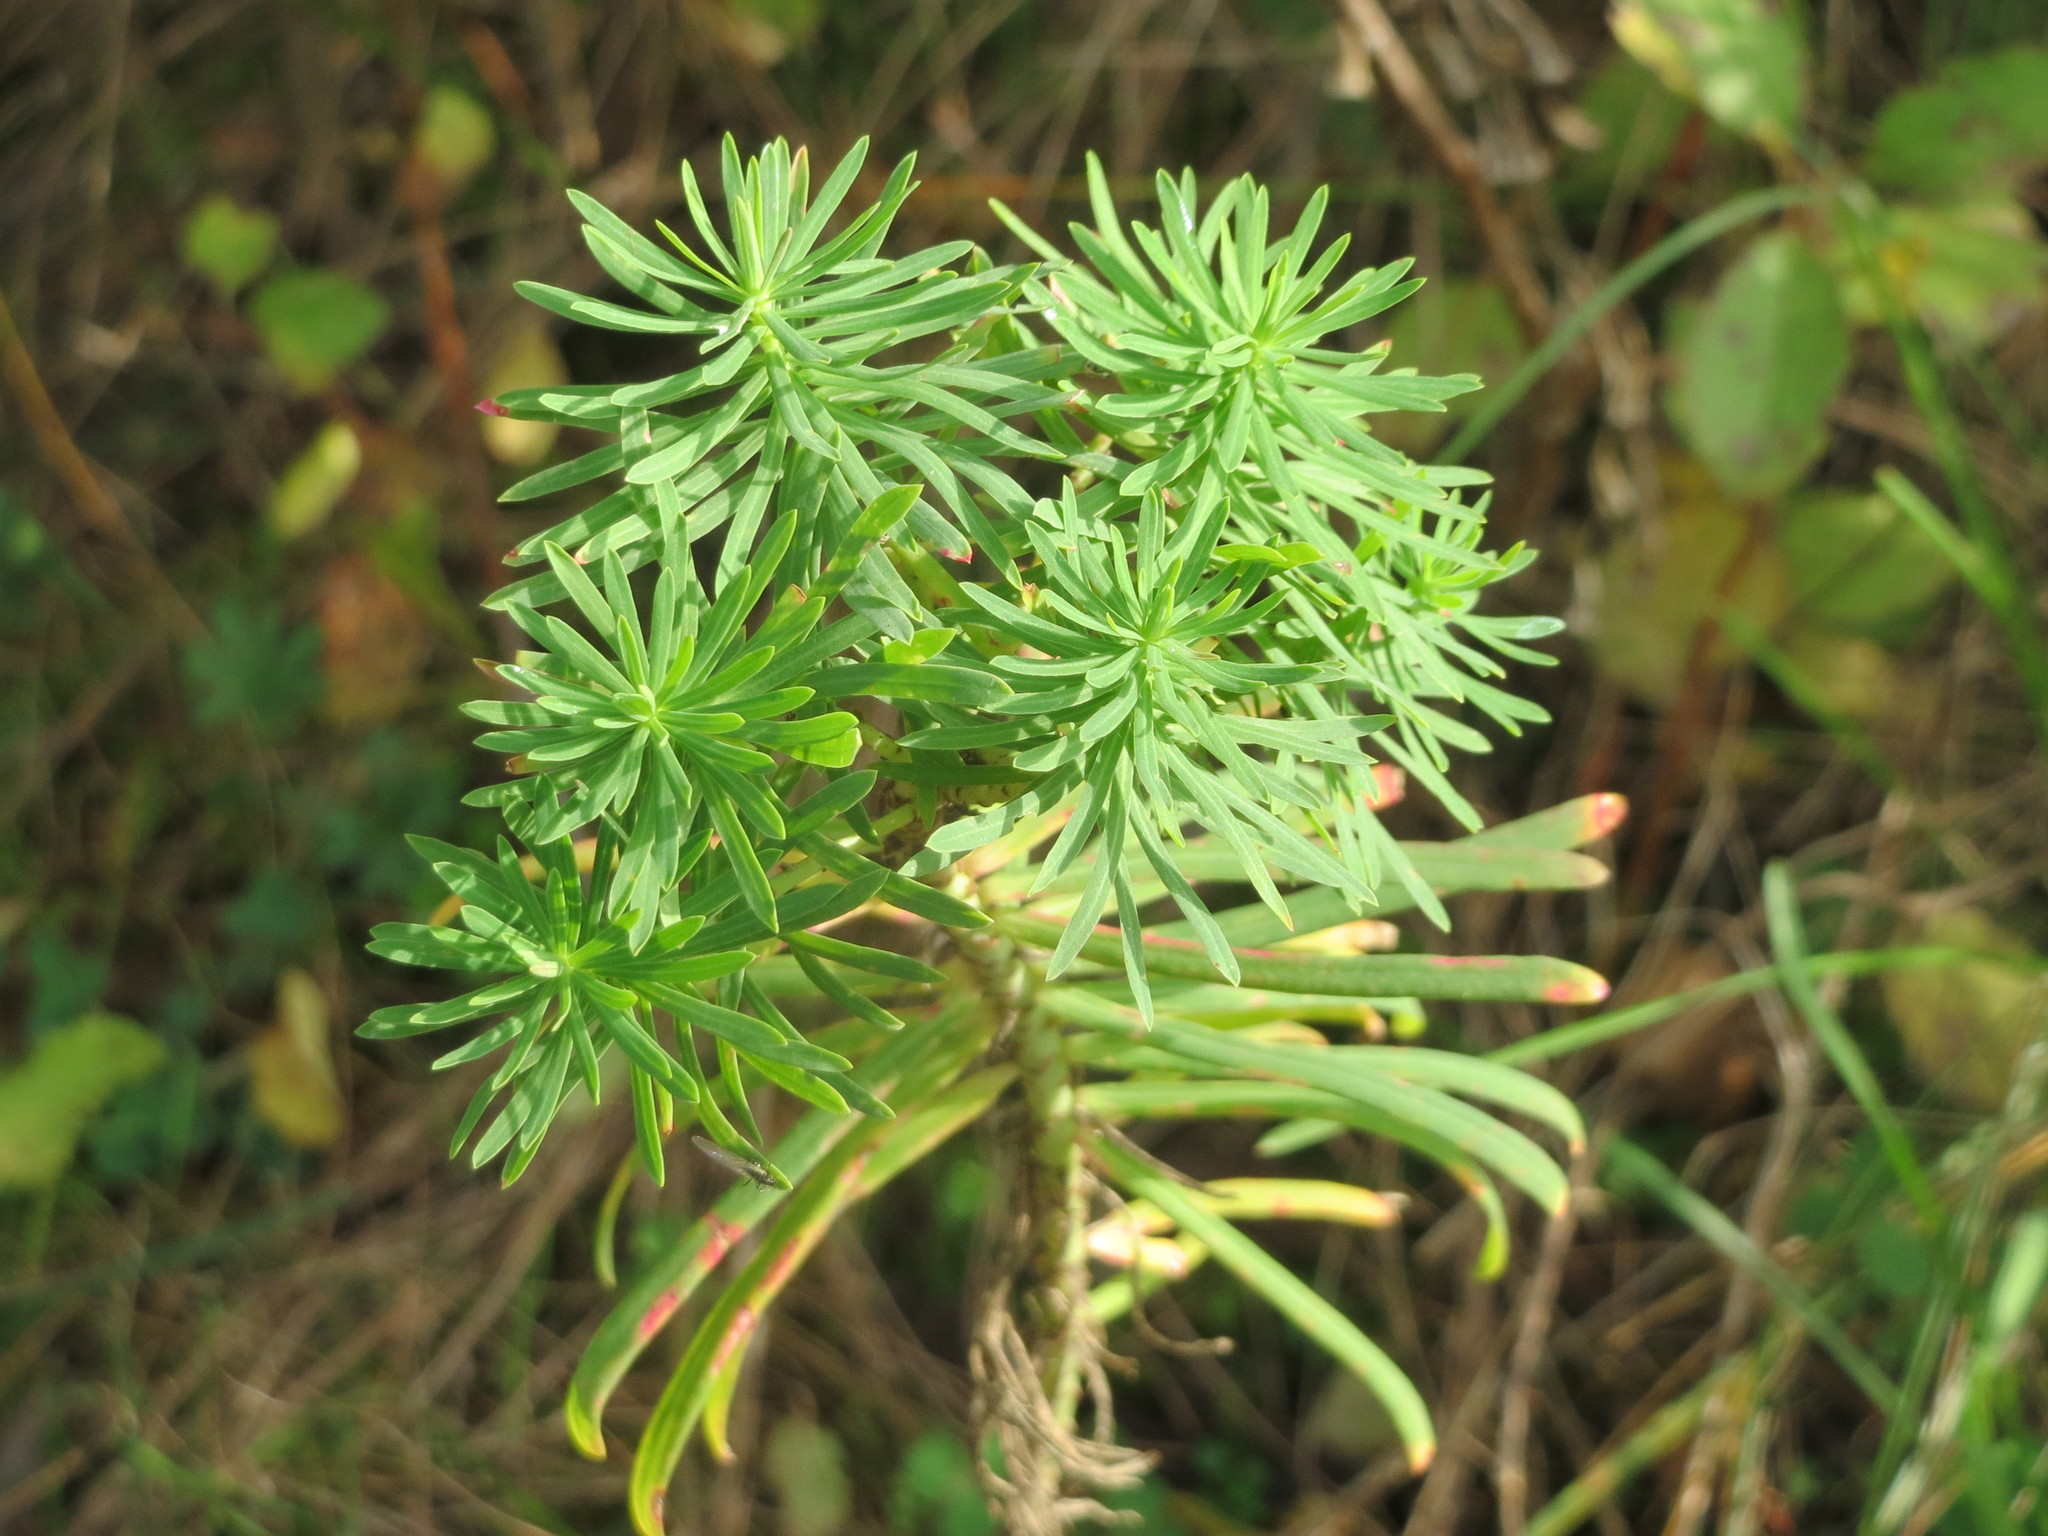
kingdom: Plantae
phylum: Tracheophyta
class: Magnoliopsida
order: Malpighiales
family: Euphorbiaceae
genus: Euphorbia
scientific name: Euphorbia cyparissias
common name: Cypress spurge
